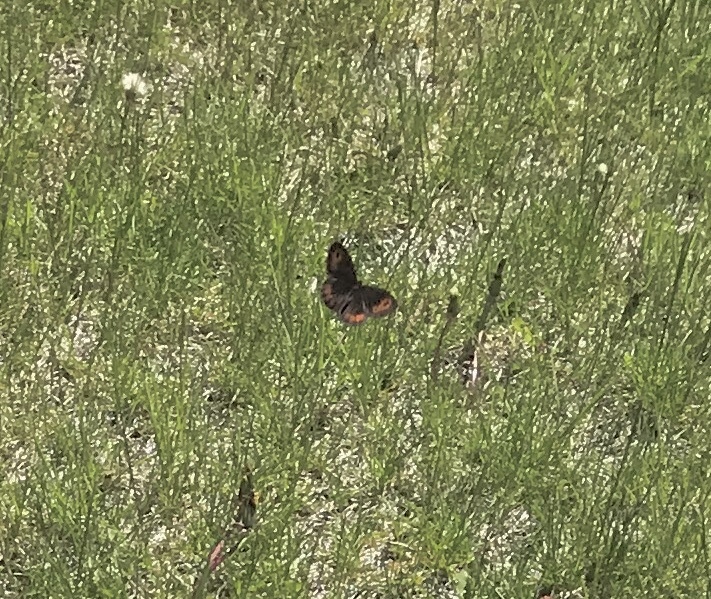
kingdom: Animalia
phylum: Arthropoda
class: Insecta
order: Lepidoptera
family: Nymphalidae
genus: Erebia
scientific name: Erebia epipsodea
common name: Common alpine
